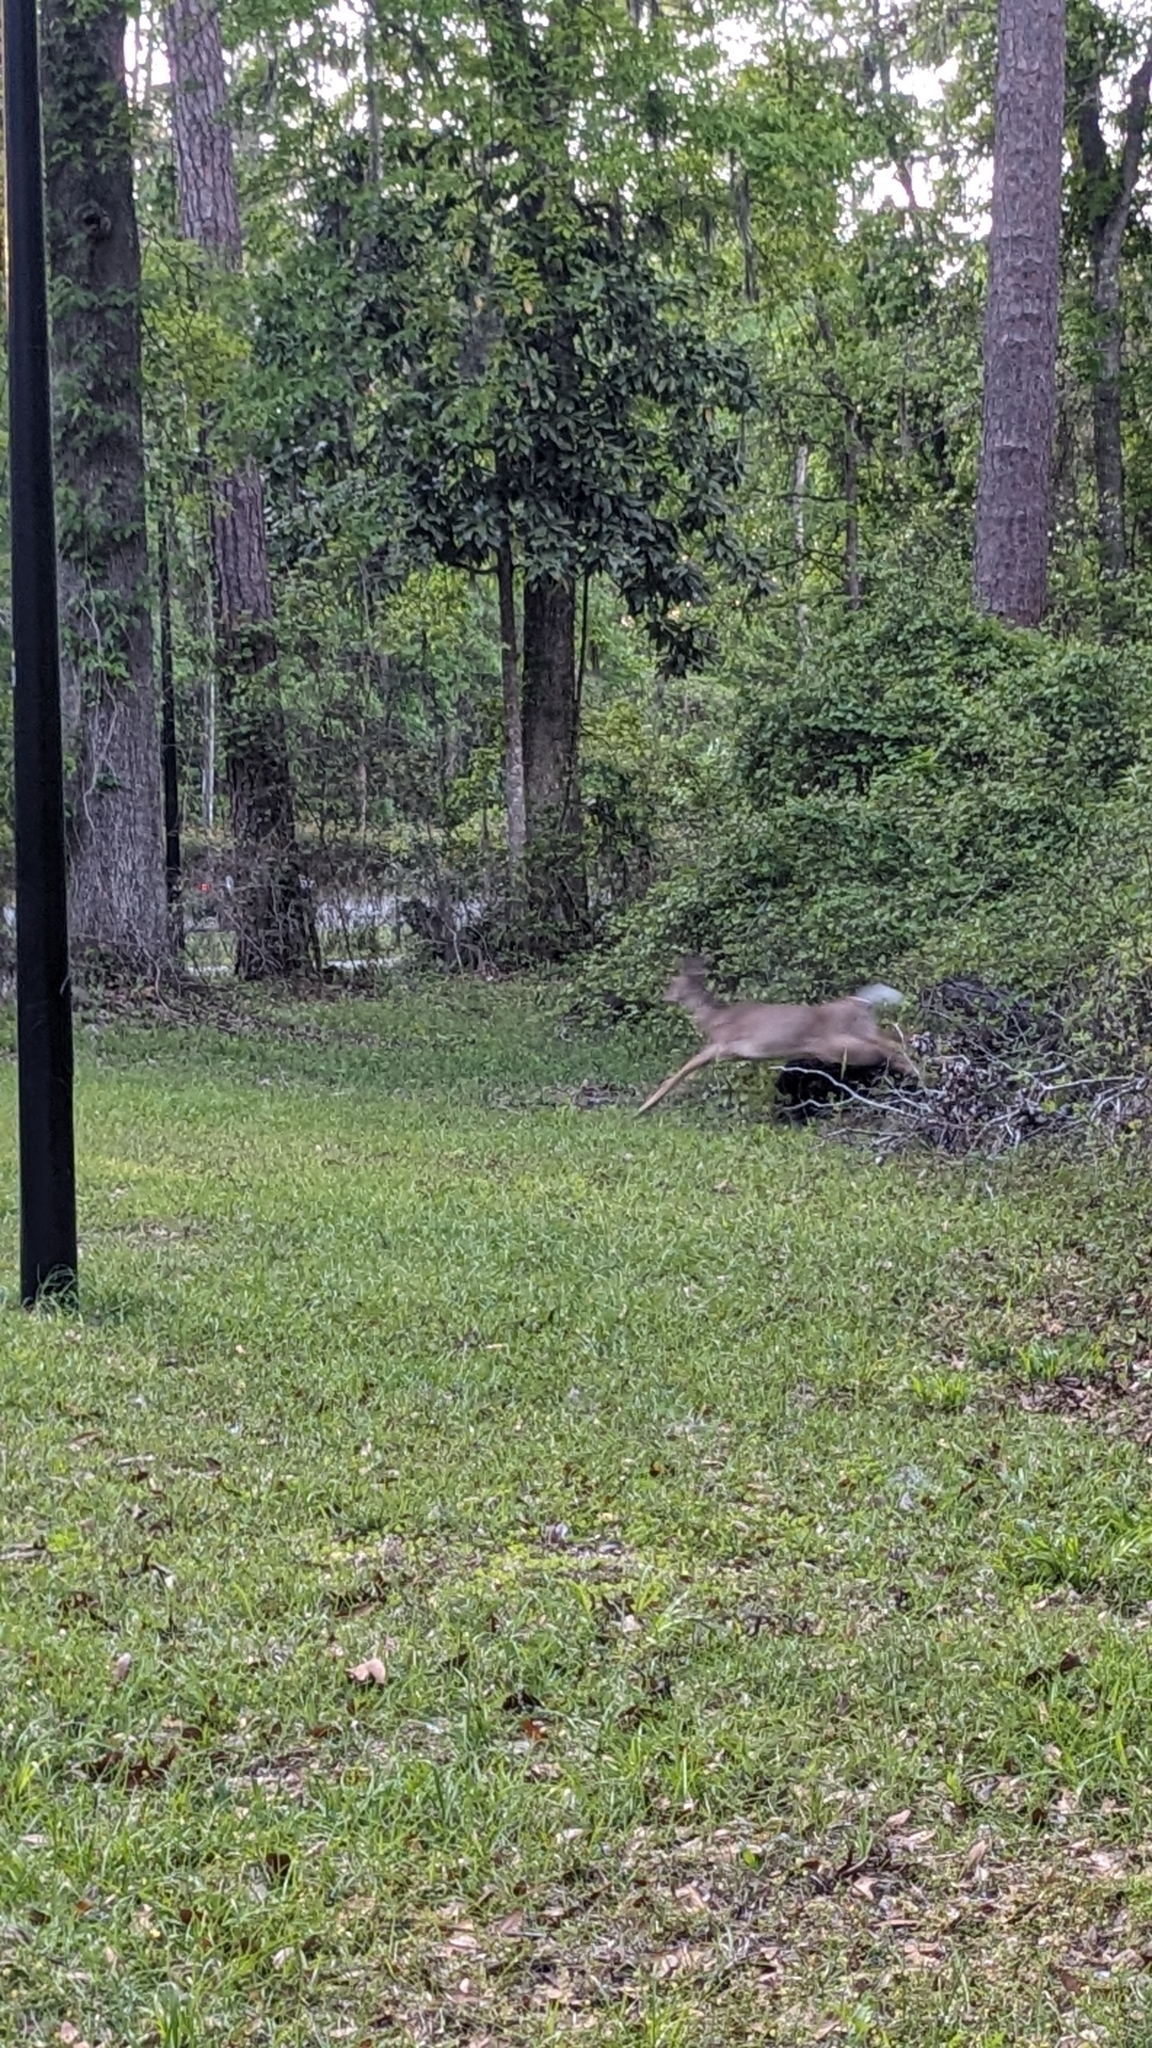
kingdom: Animalia
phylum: Chordata
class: Mammalia
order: Artiodactyla
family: Cervidae
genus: Odocoileus
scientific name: Odocoileus virginianus
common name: White-tailed deer
